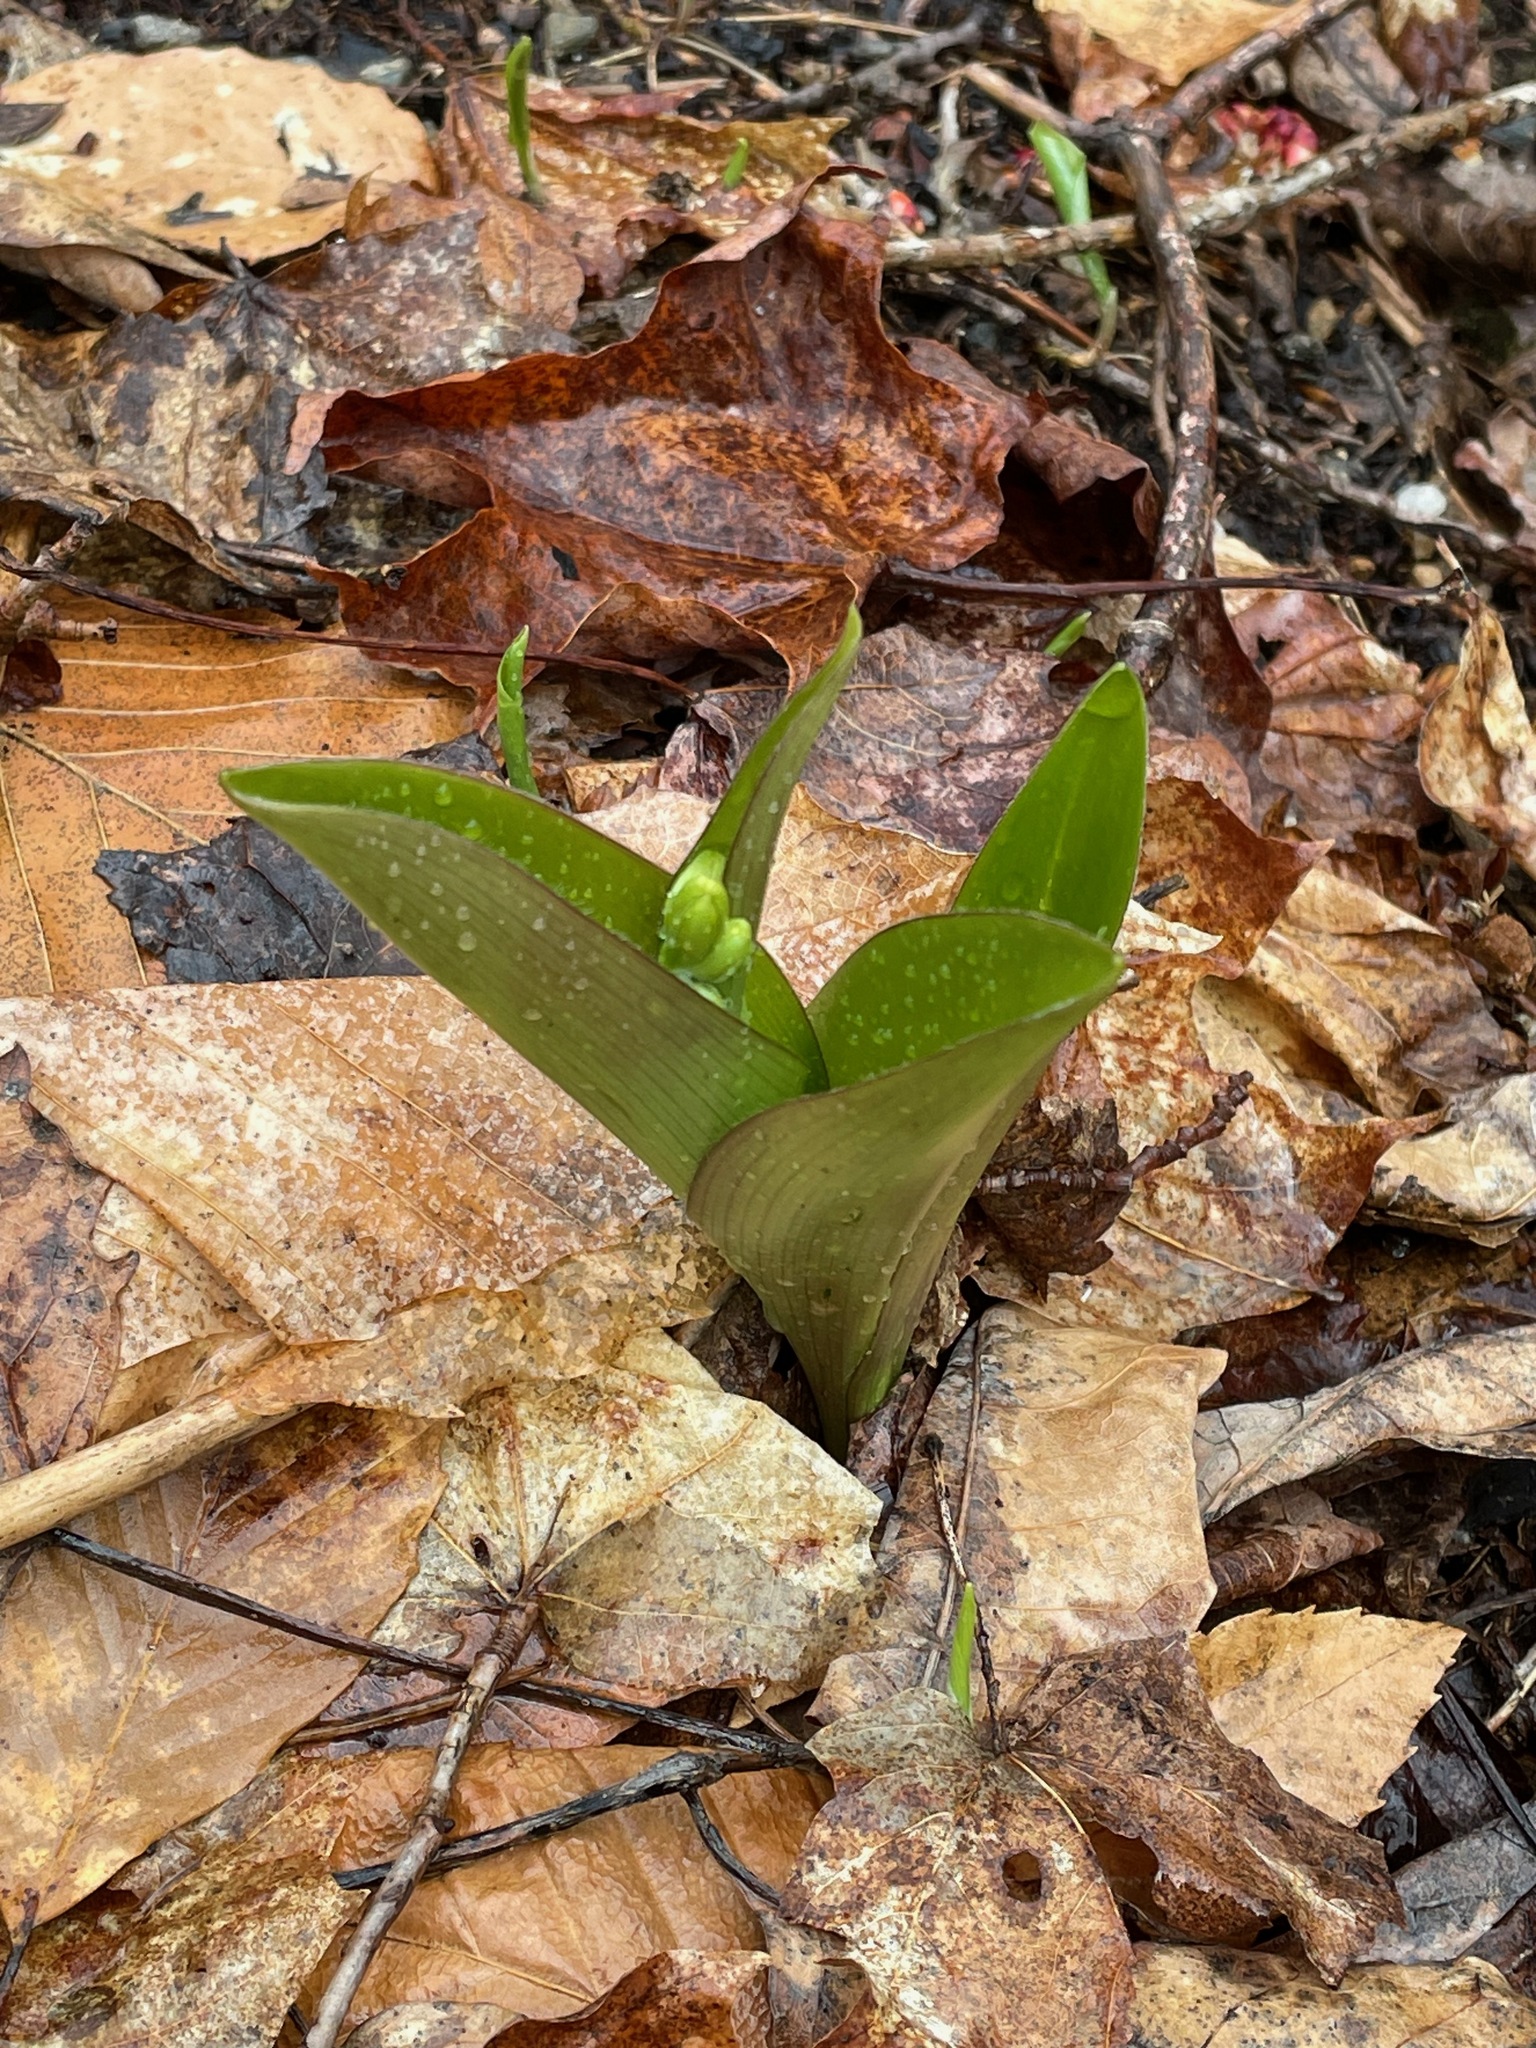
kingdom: Plantae
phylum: Tracheophyta
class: Liliopsida
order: Liliales
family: Liliaceae
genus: Clintonia
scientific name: Clintonia borealis
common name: Yellow clintonia
